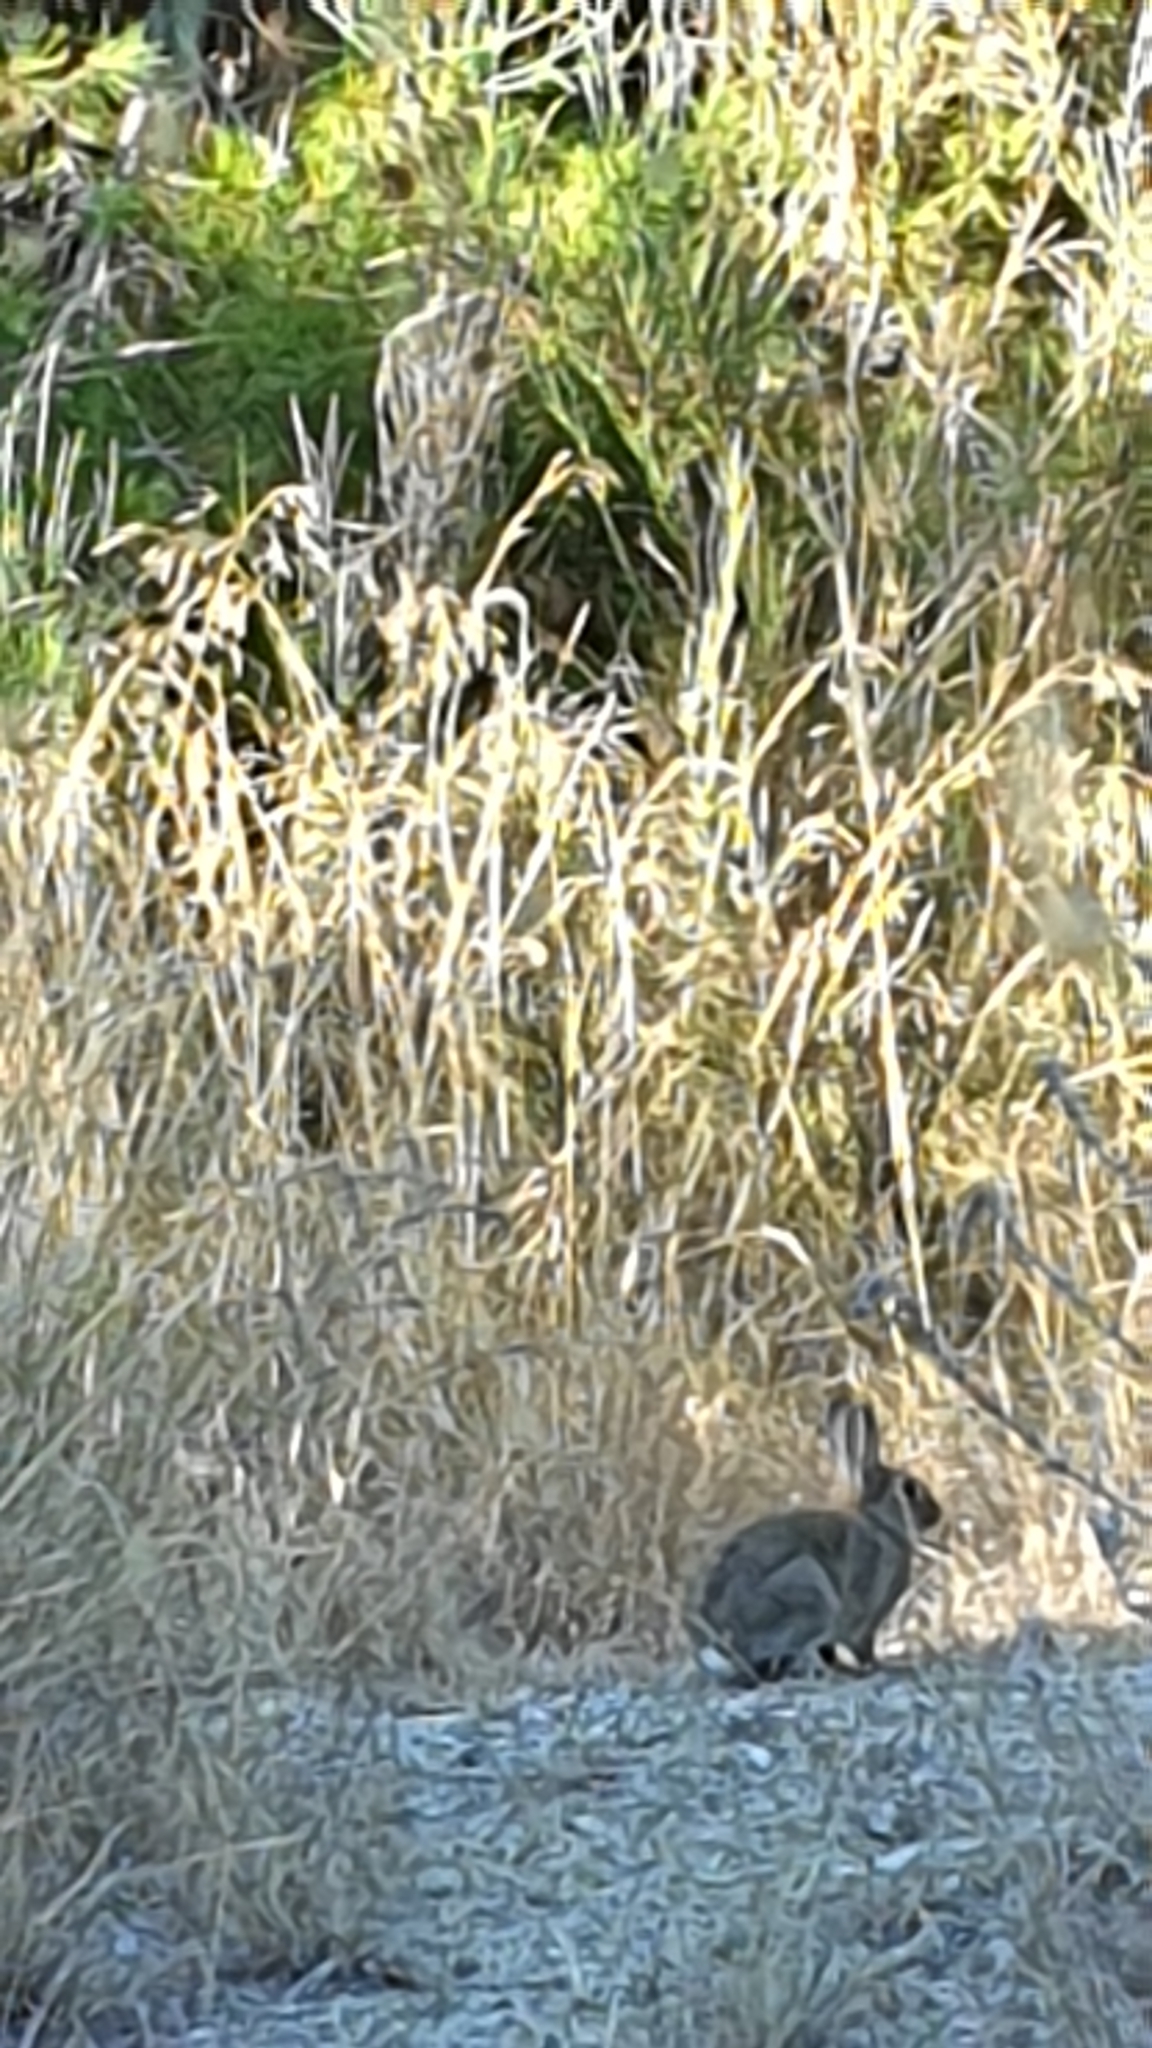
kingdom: Animalia
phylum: Chordata
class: Mammalia
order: Lagomorpha
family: Leporidae
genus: Oryctolagus
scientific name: Oryctolagus cuniculus
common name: European rabbit
